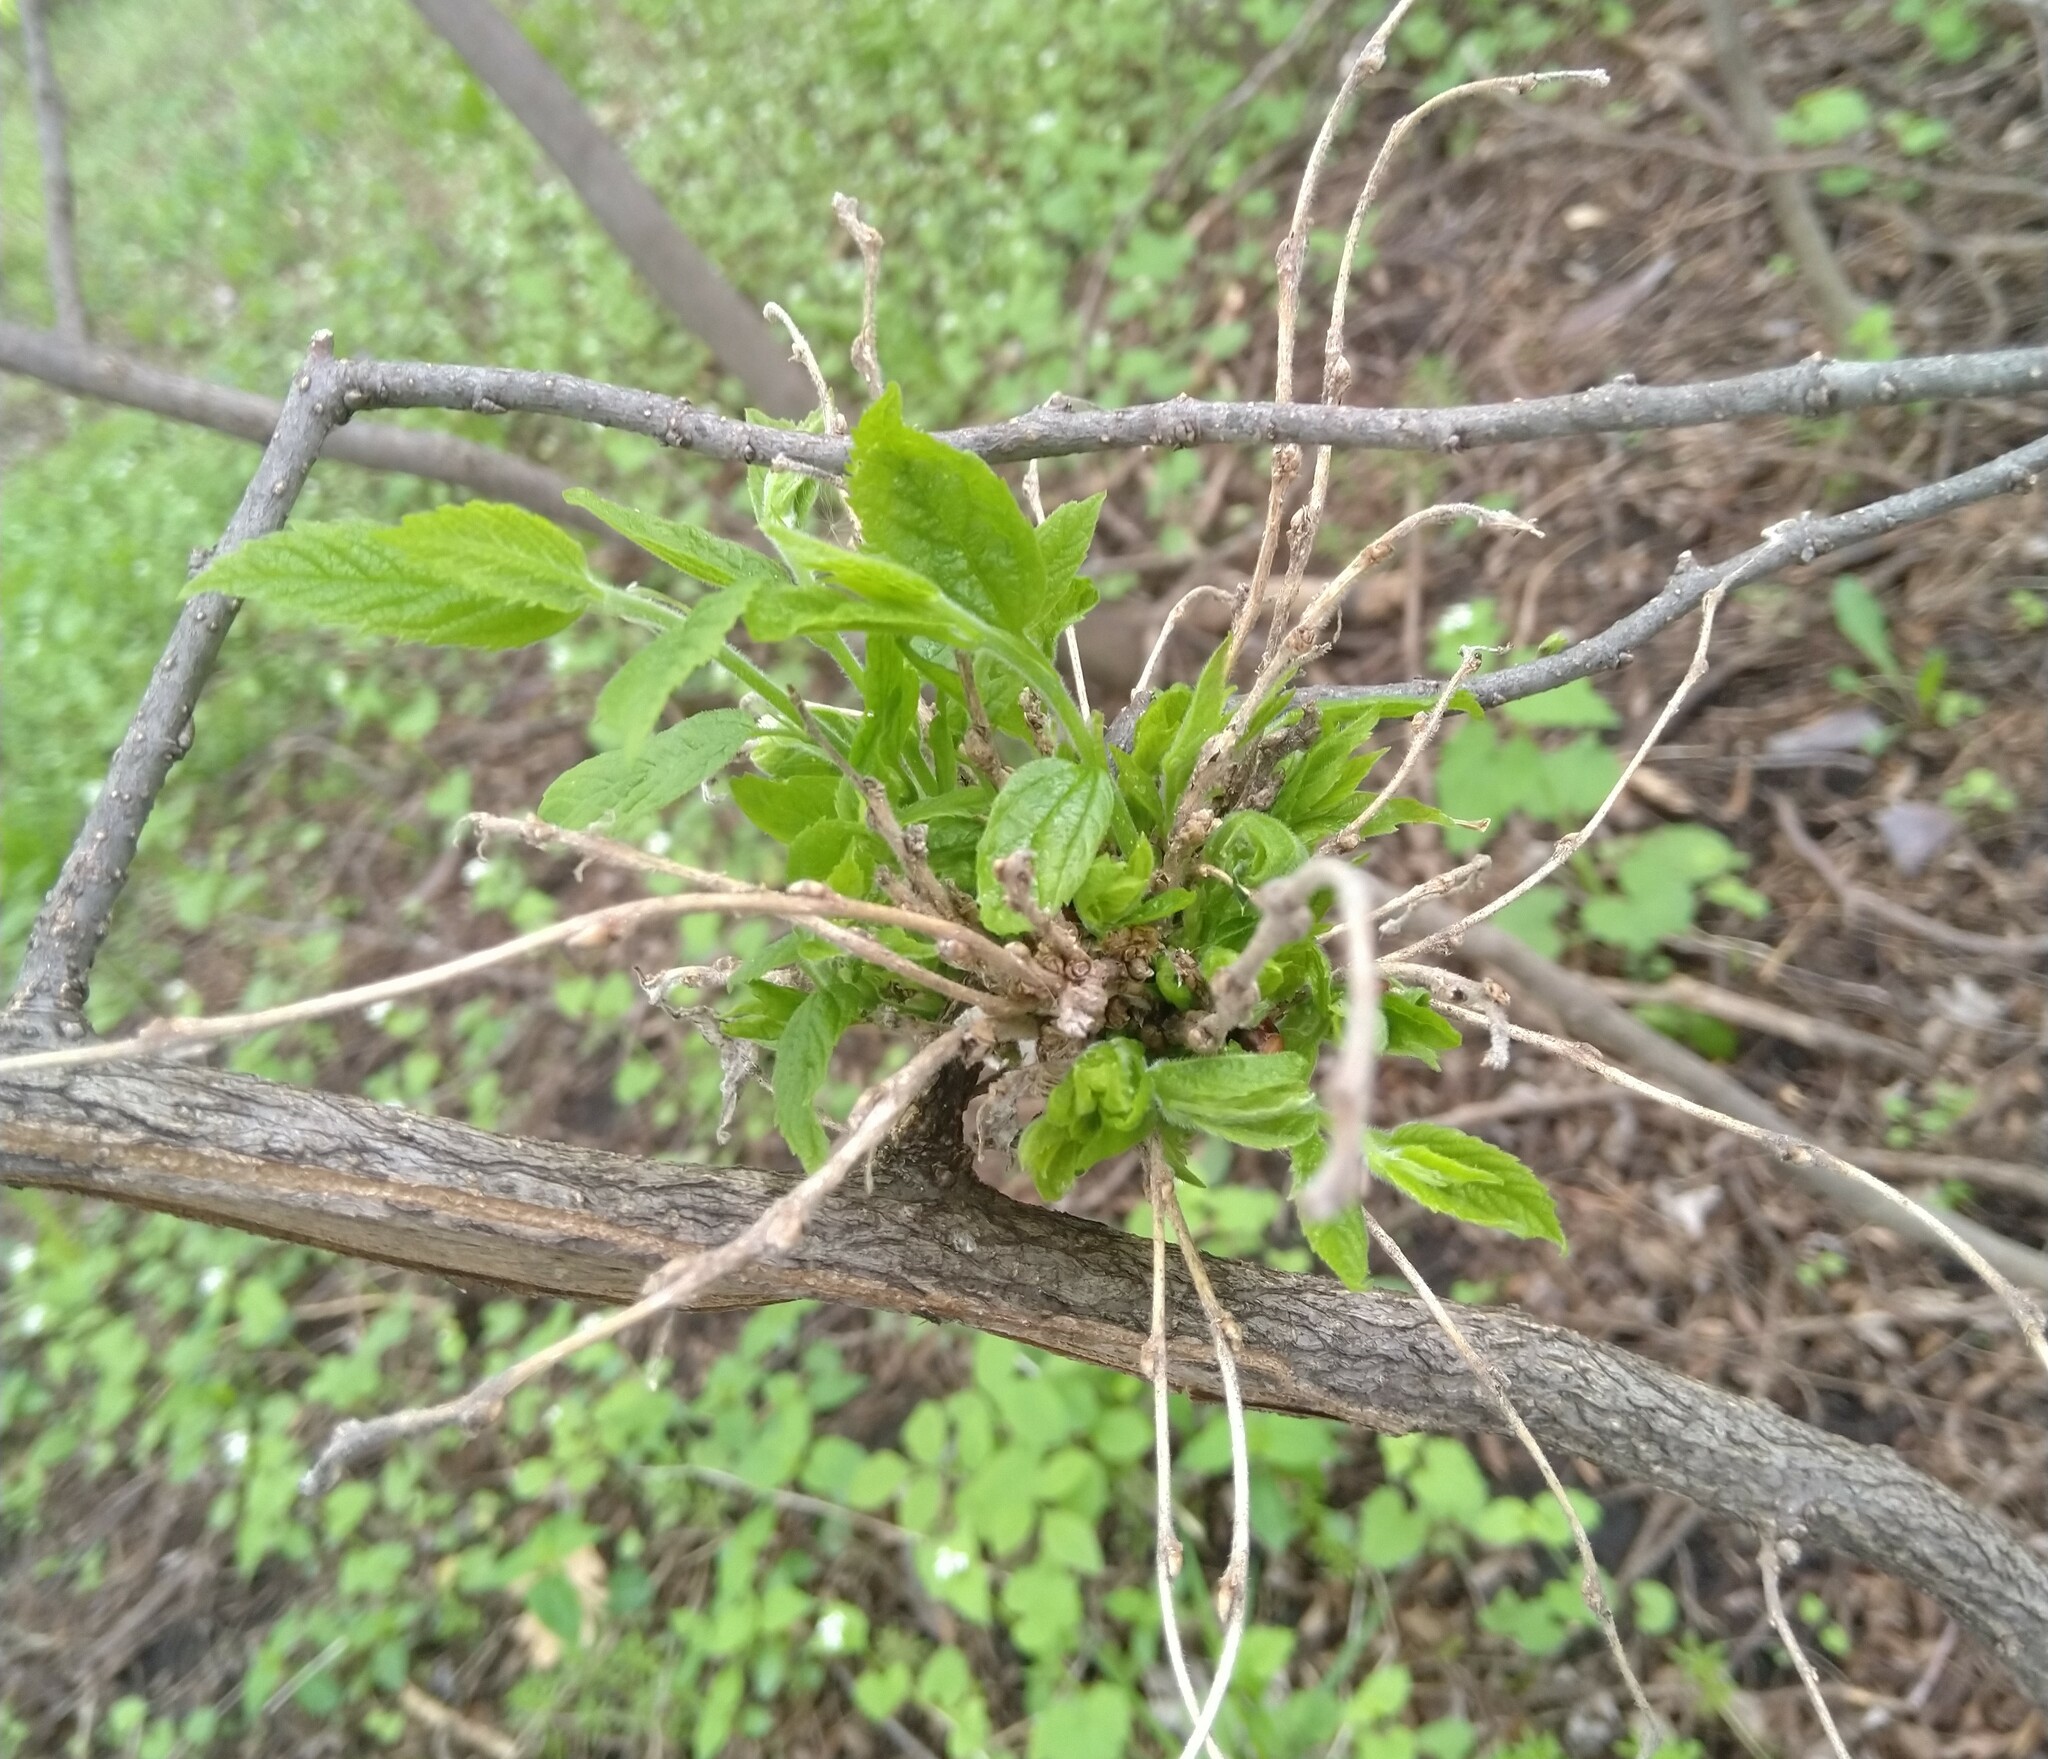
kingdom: Fungi
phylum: Ascomycota
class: Leotiomycetes
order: Helotiales
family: Erysiphaceae
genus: Podosphaera
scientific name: Podosphaera phytoptophila
